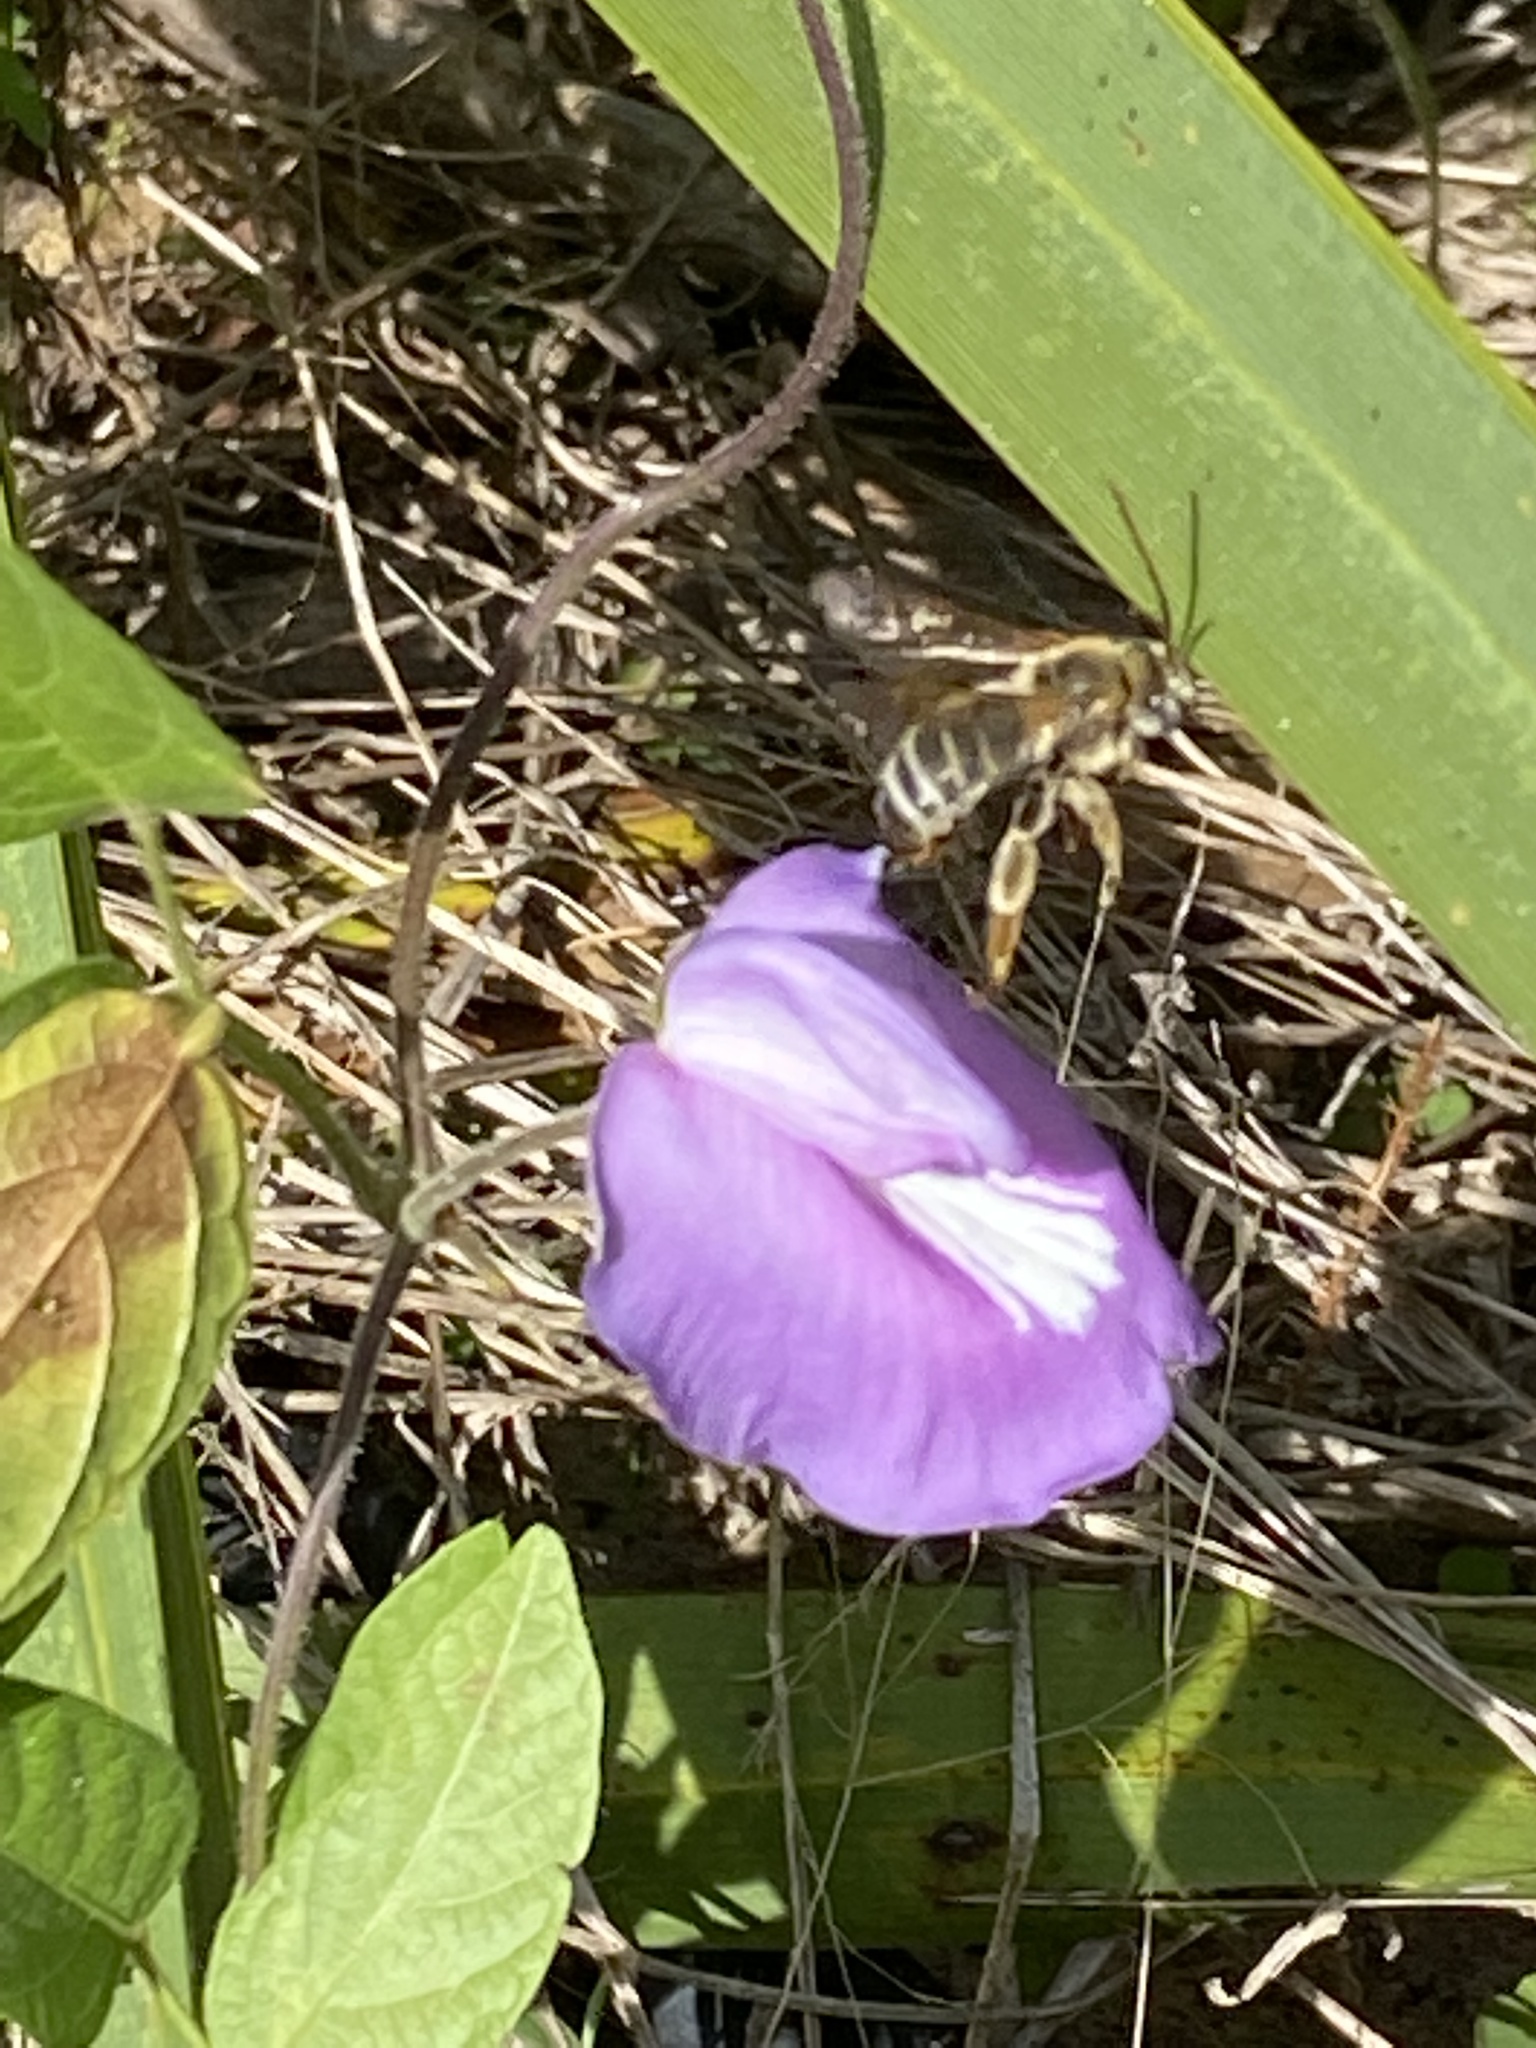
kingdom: Plantae
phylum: Tracheophyta
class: Magnoliopsida
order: Fabales
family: Fabaceae
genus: Centrosema
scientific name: Centrosema virginianum
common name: Butterfly-pea
